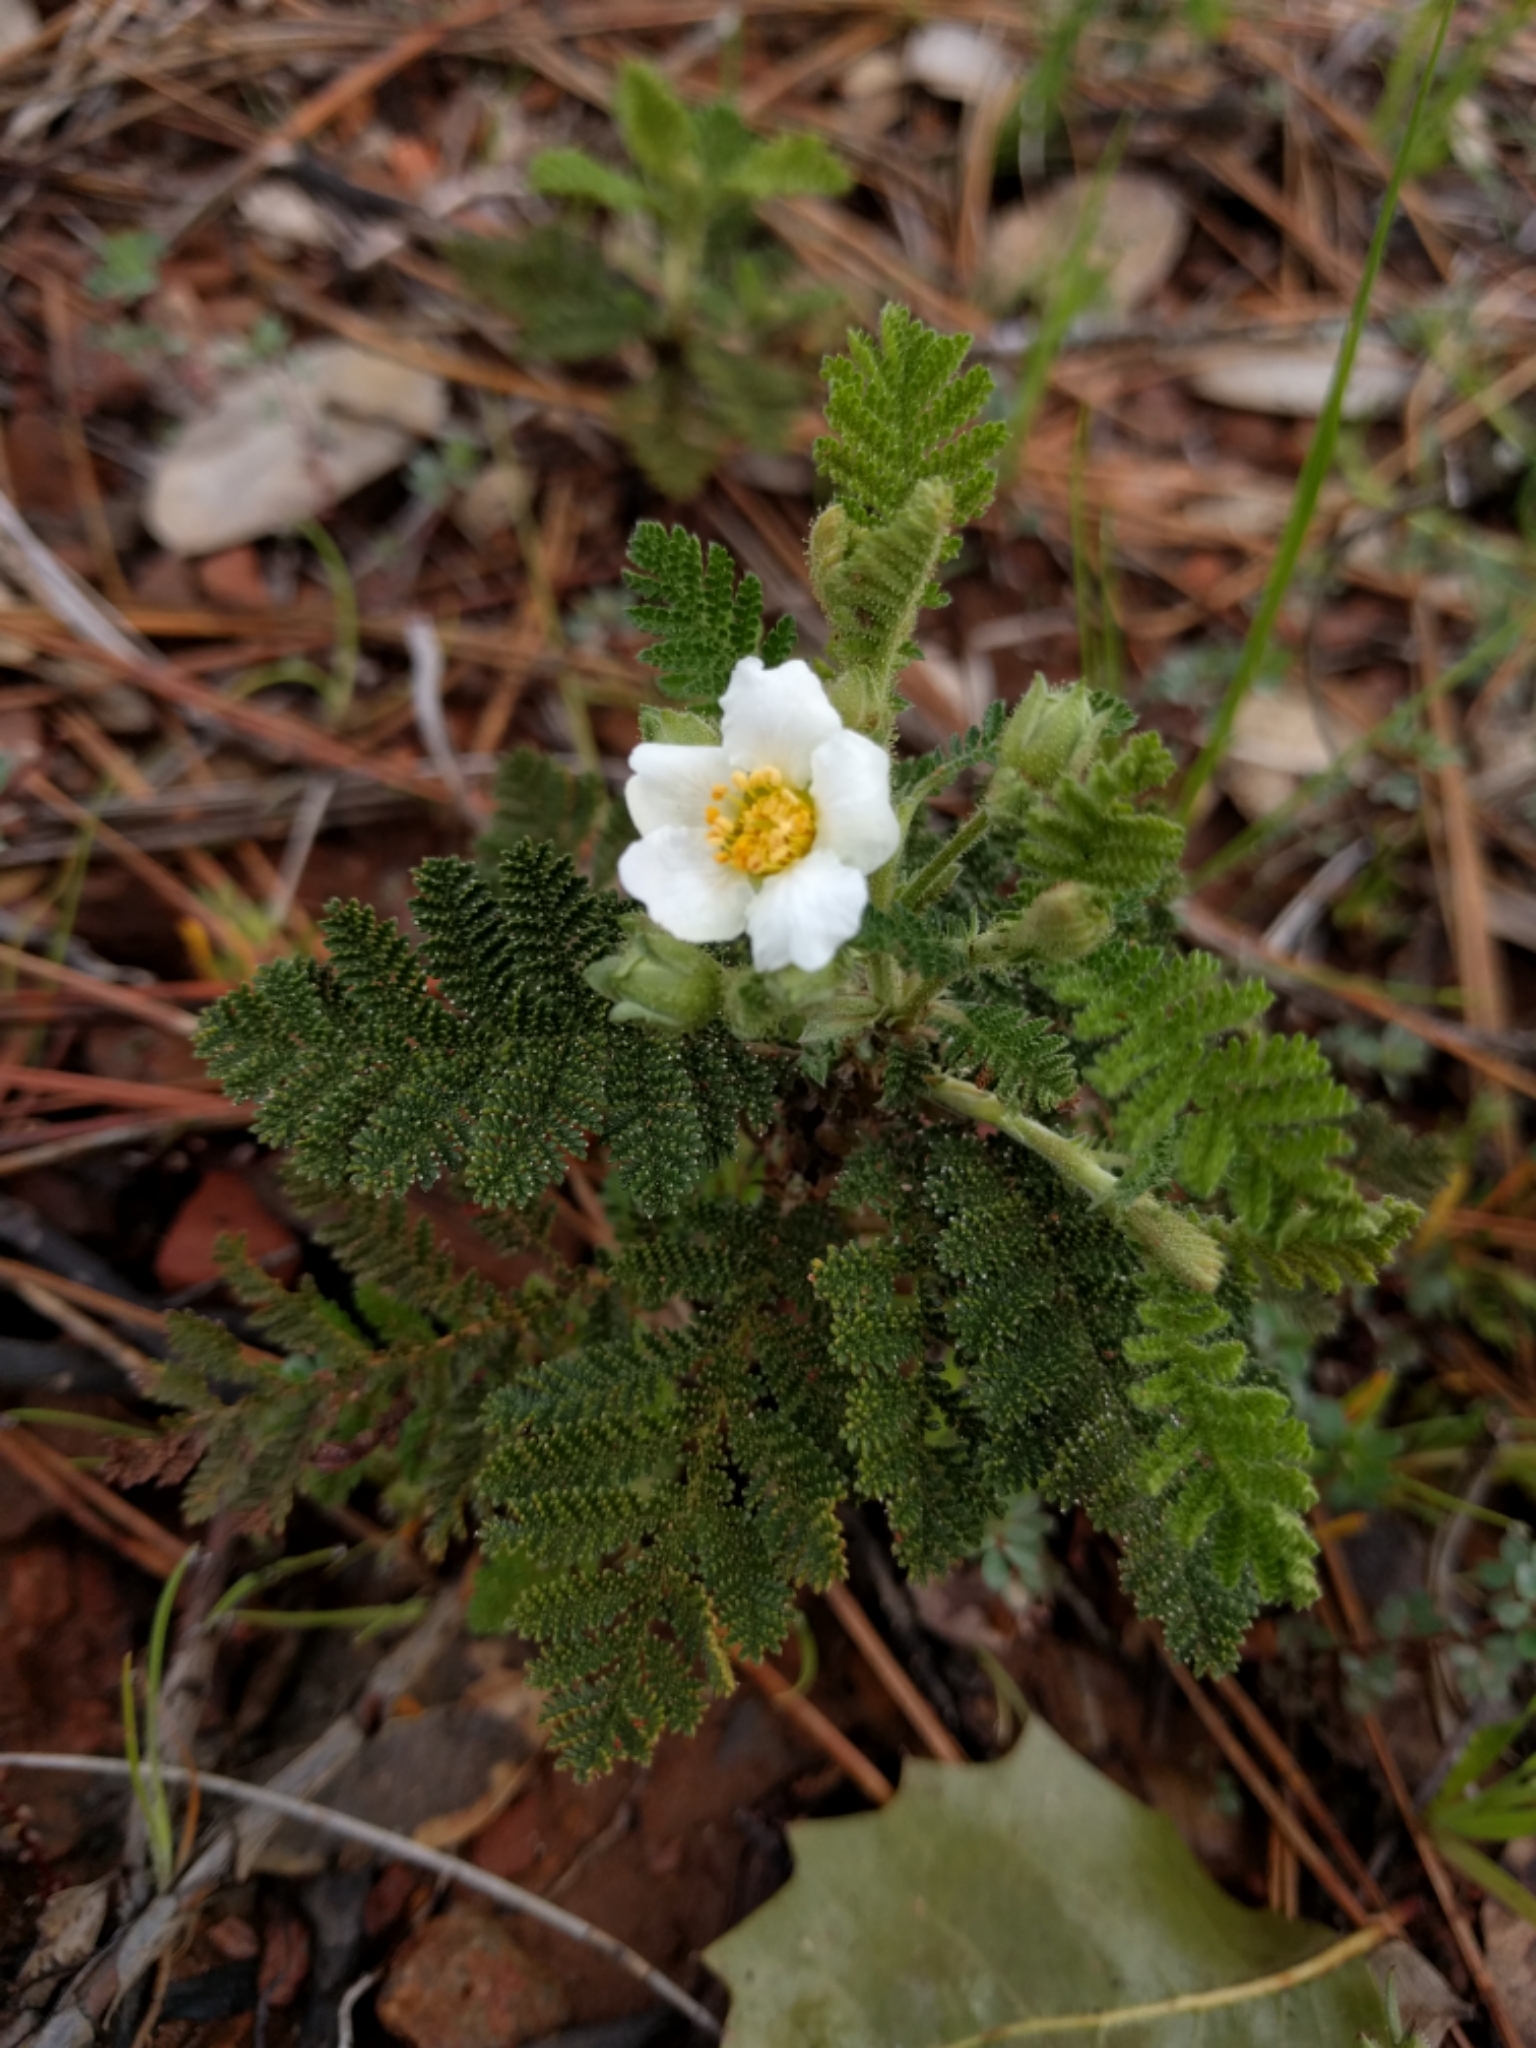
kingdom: Plantae
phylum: Tracheophyta
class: Magnoliopsida
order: Rosales
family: Rosaceae
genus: Chamaebatia
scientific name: Chamaebatia foliolosa
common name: Mountain misery
